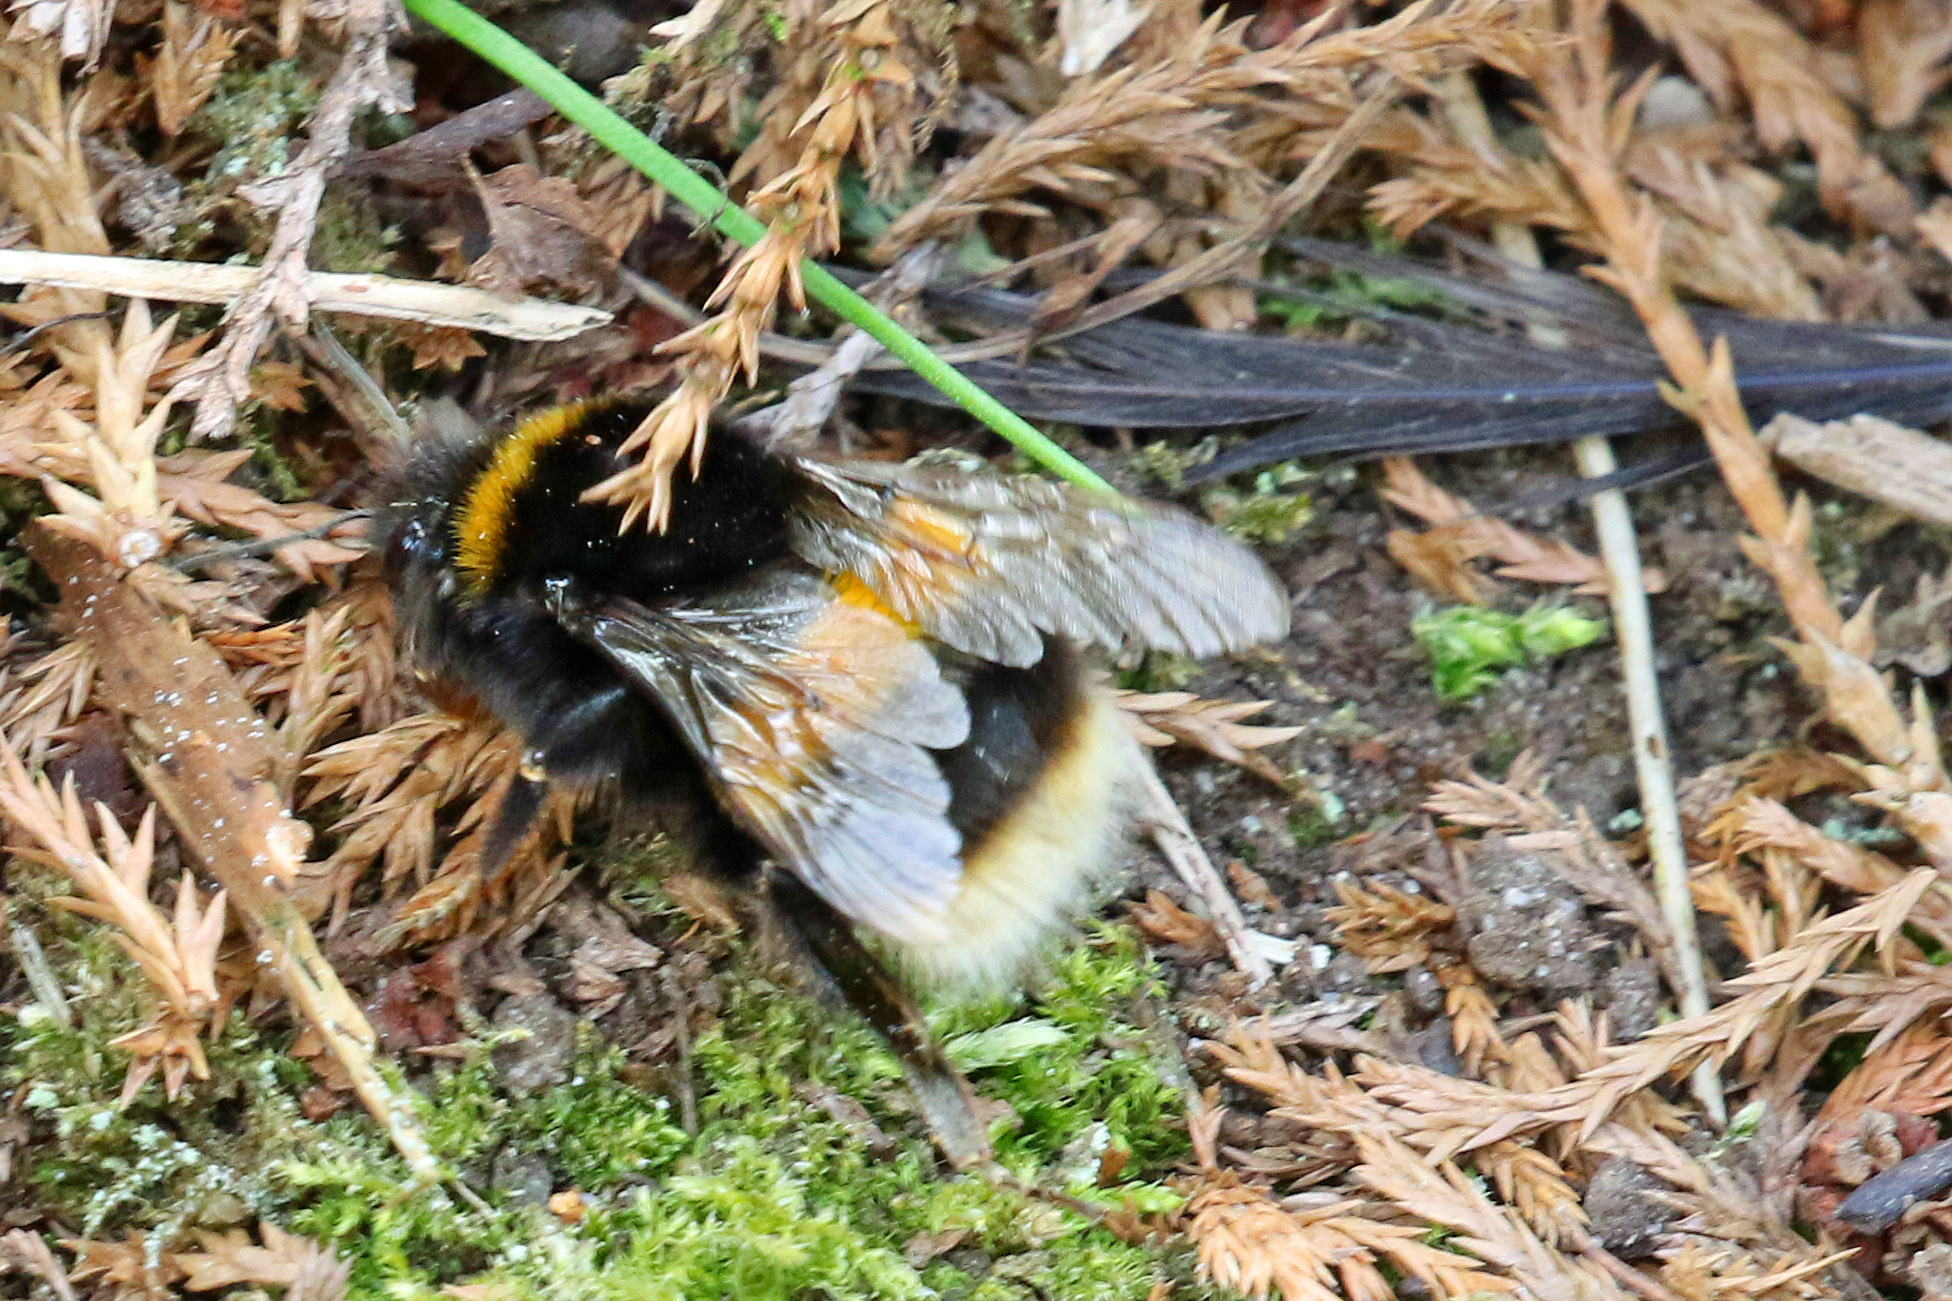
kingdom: Animalia
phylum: Arthropoda
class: Insecta
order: Hymenoptera
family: Apidae
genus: Bombus
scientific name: Bombus terrestris
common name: Buff-tailed bumblebee
